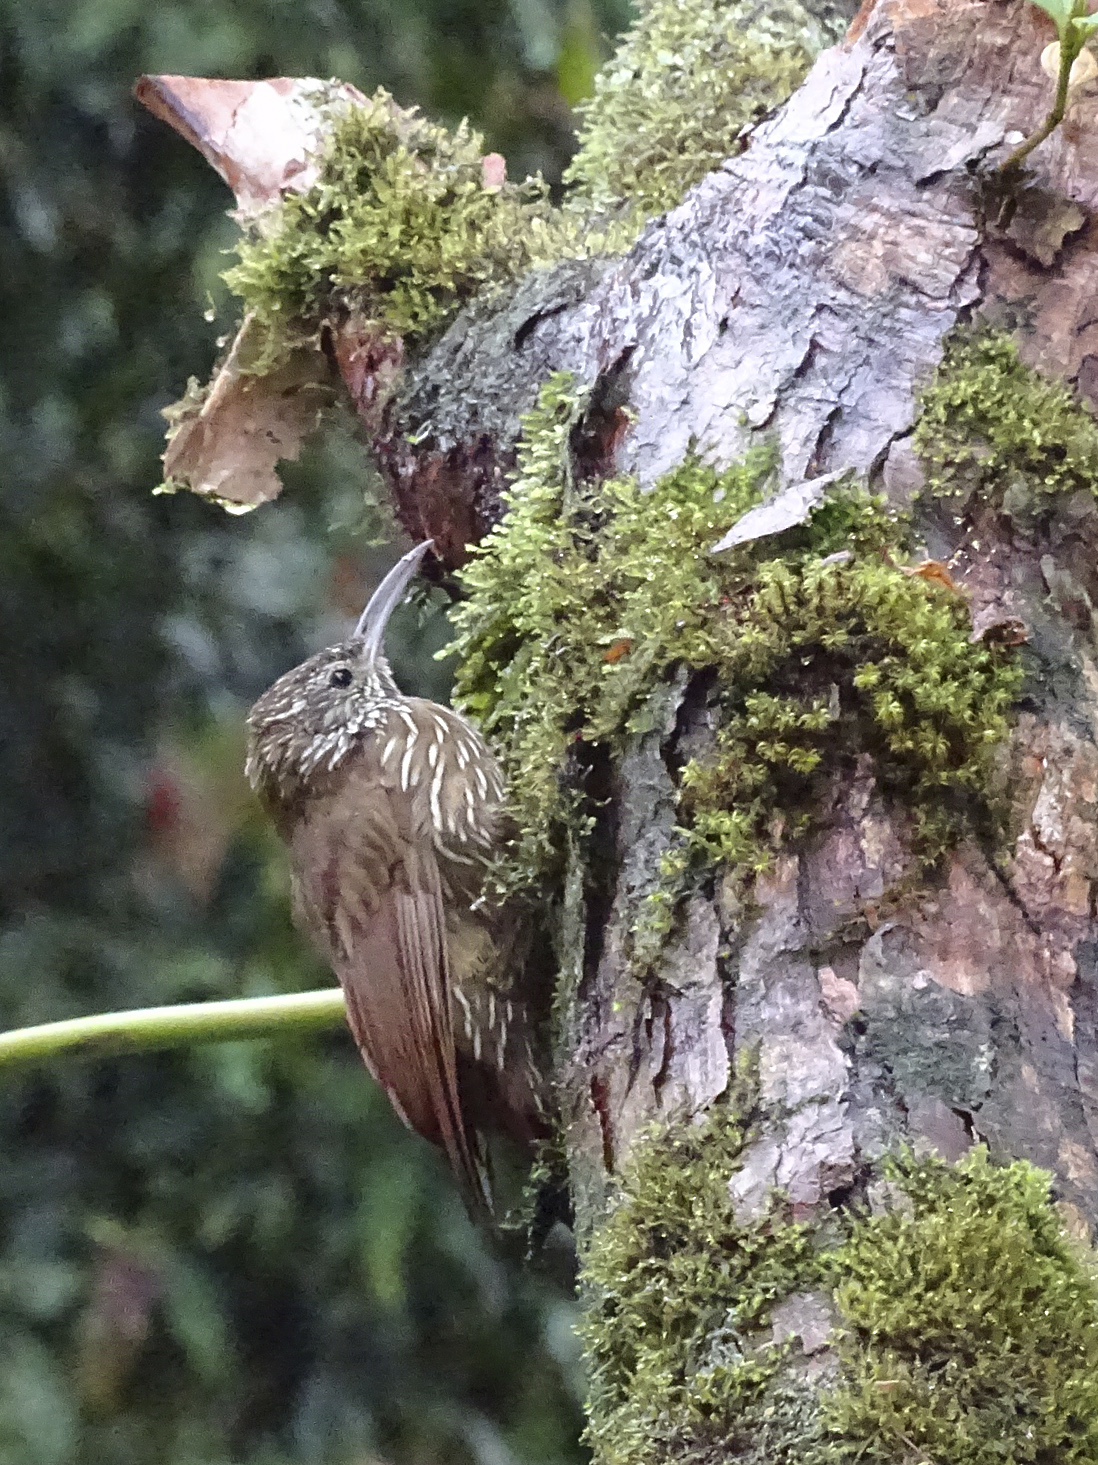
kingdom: Animalia
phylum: Chordata
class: Aves
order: Passeriformes
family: Furnariidae
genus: Lepidocolaptes
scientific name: Lepidocolaptes lacrymiger
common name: Montane woodcreeper
